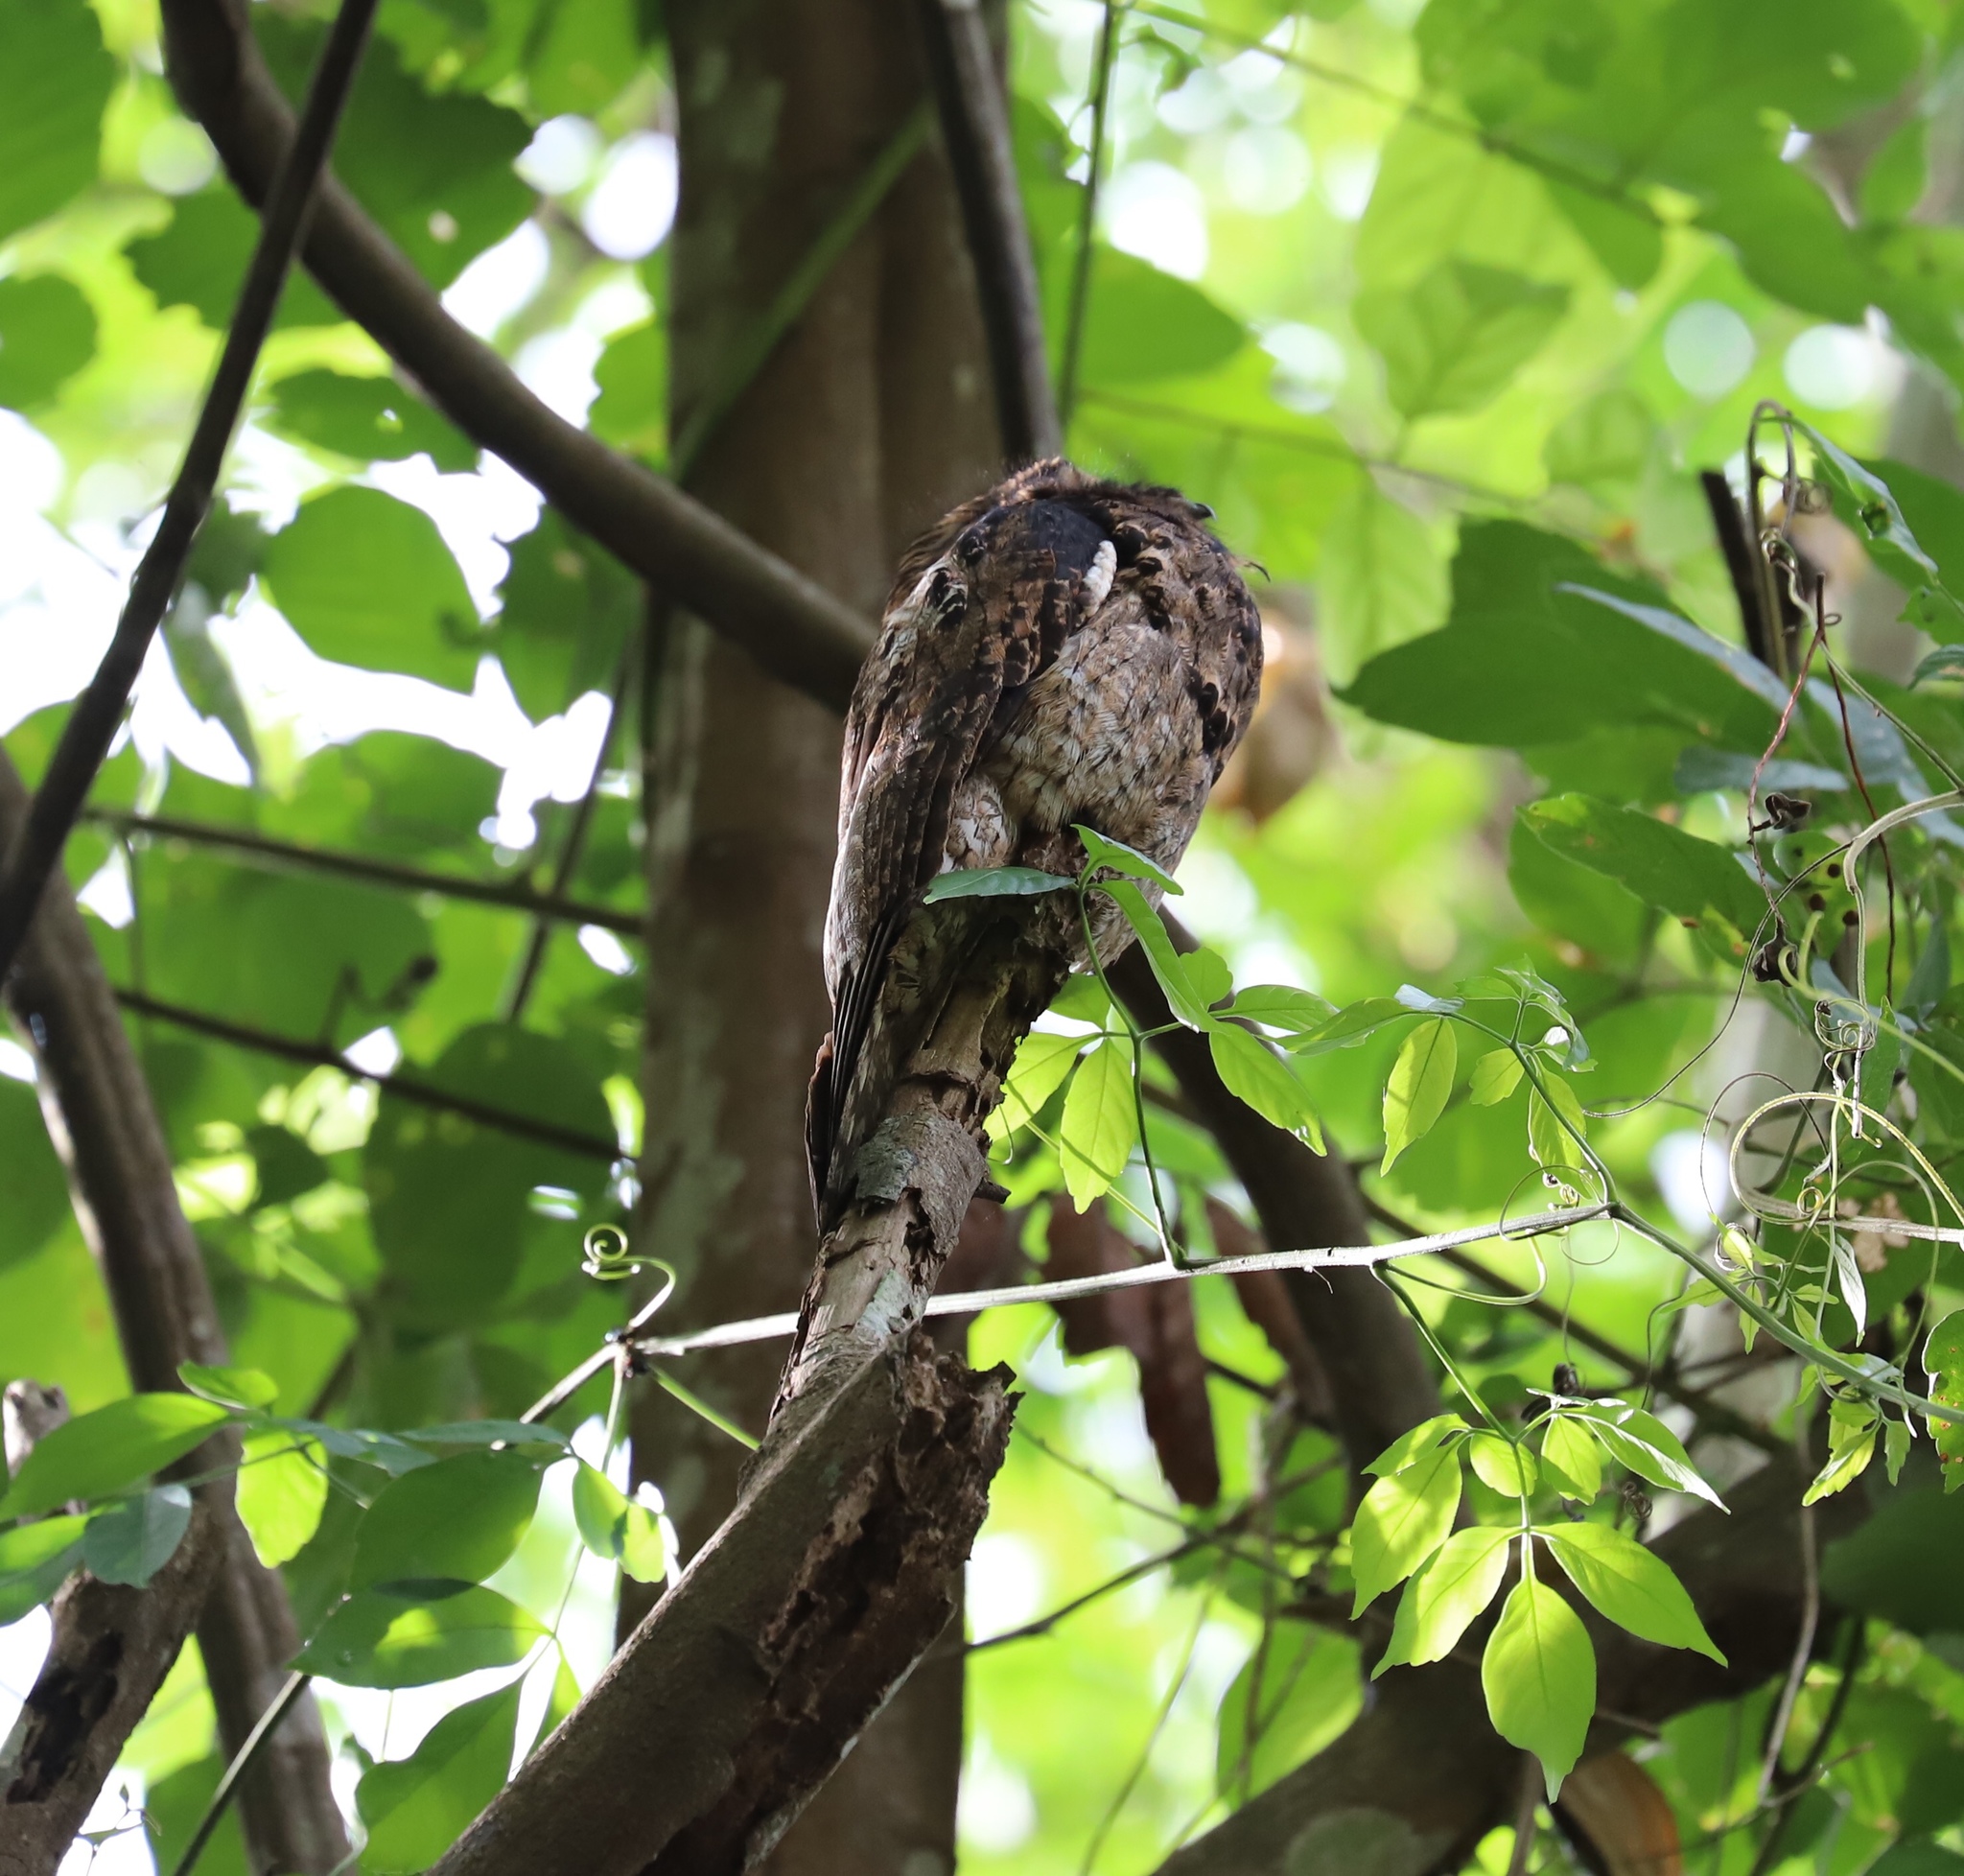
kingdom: Animalia
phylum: Chordata
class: Aves
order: Nyctibiiformes
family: Nyctibiidae
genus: Nyctibius
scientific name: Nyctibius griseus
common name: Common potoo
